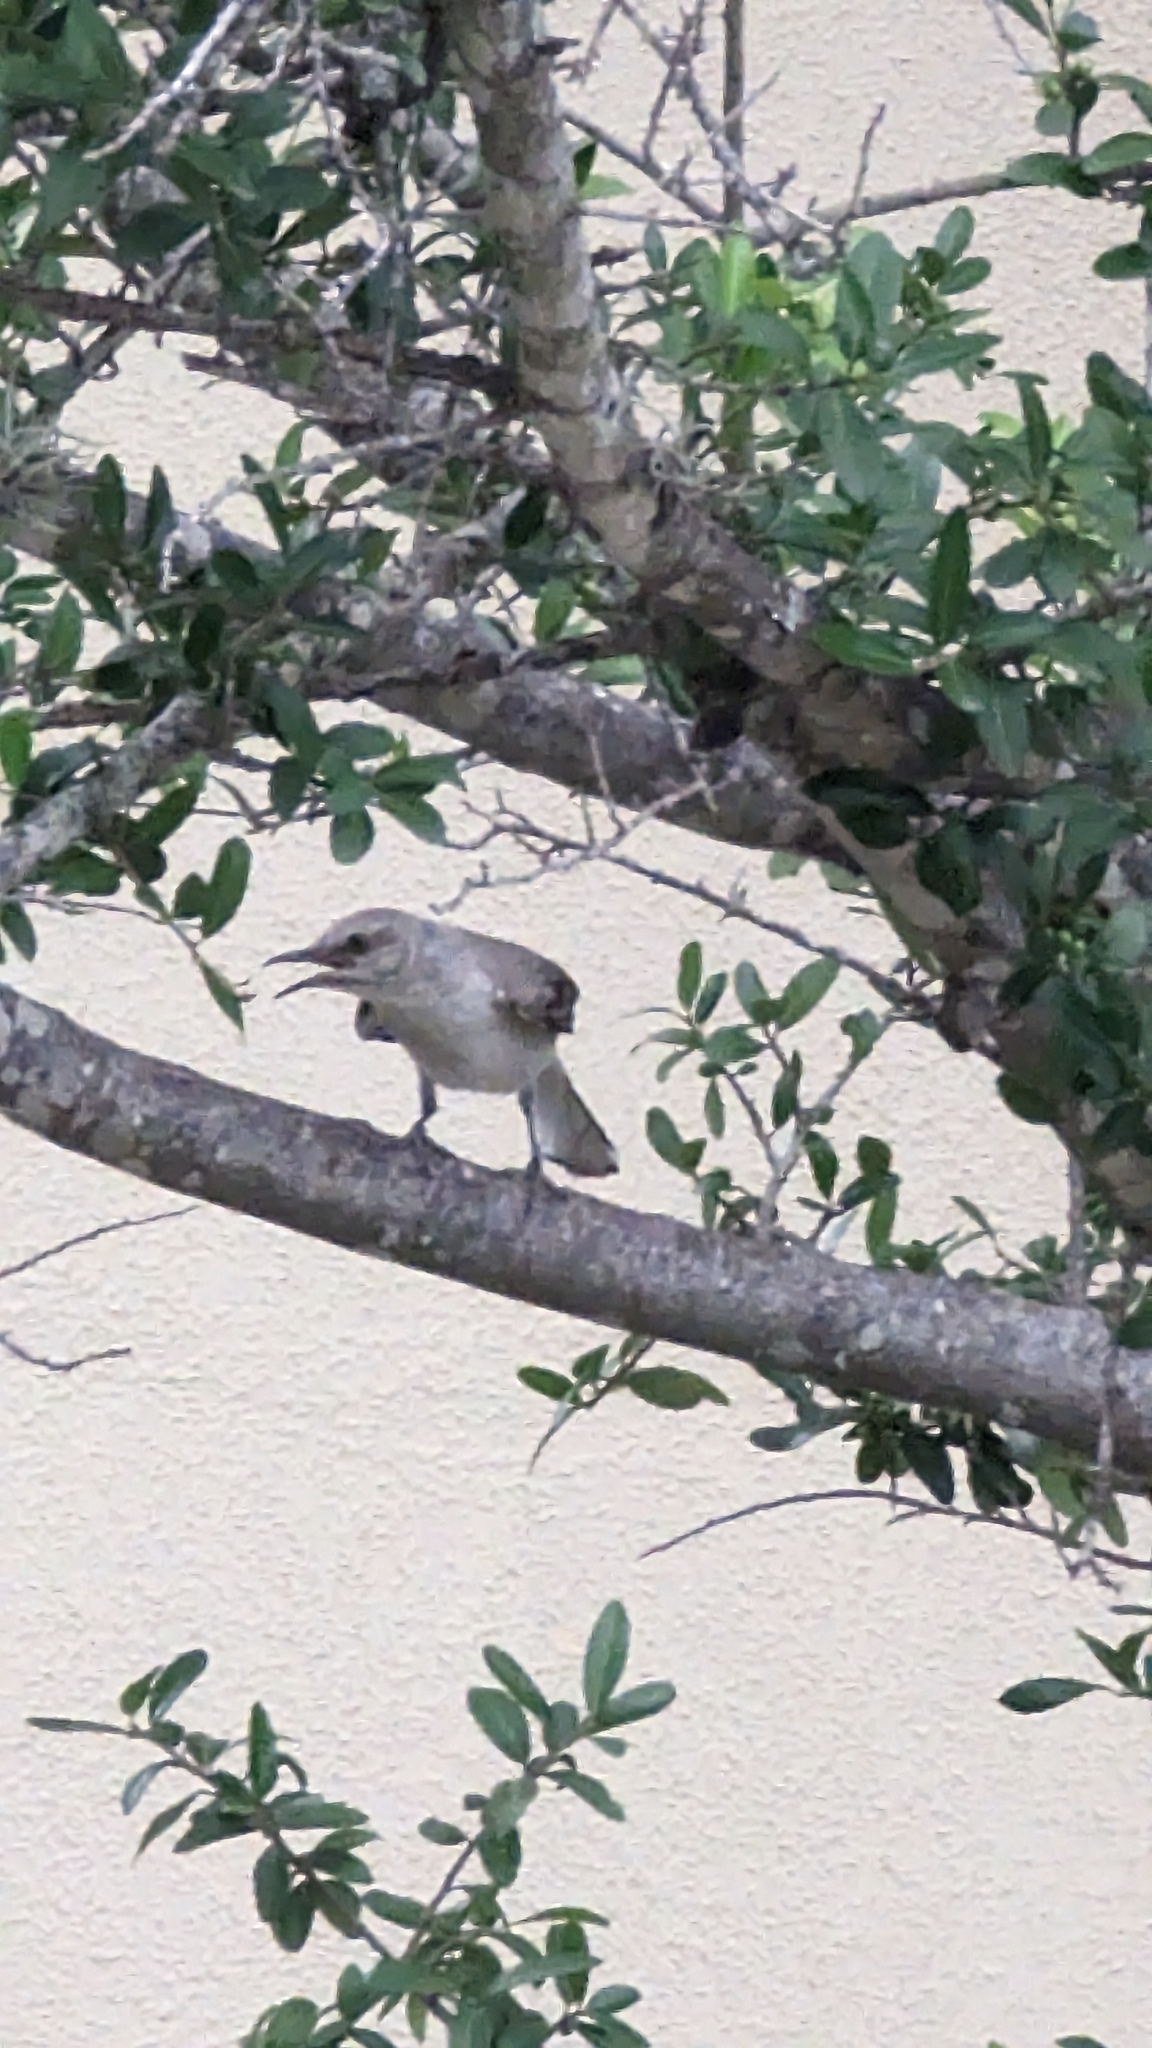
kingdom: Animalia
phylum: Chordata
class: Aves
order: Passeriformes
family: Mimidae
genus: Mimus
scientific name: Mimus polyglottos
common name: Northern mockingbird
